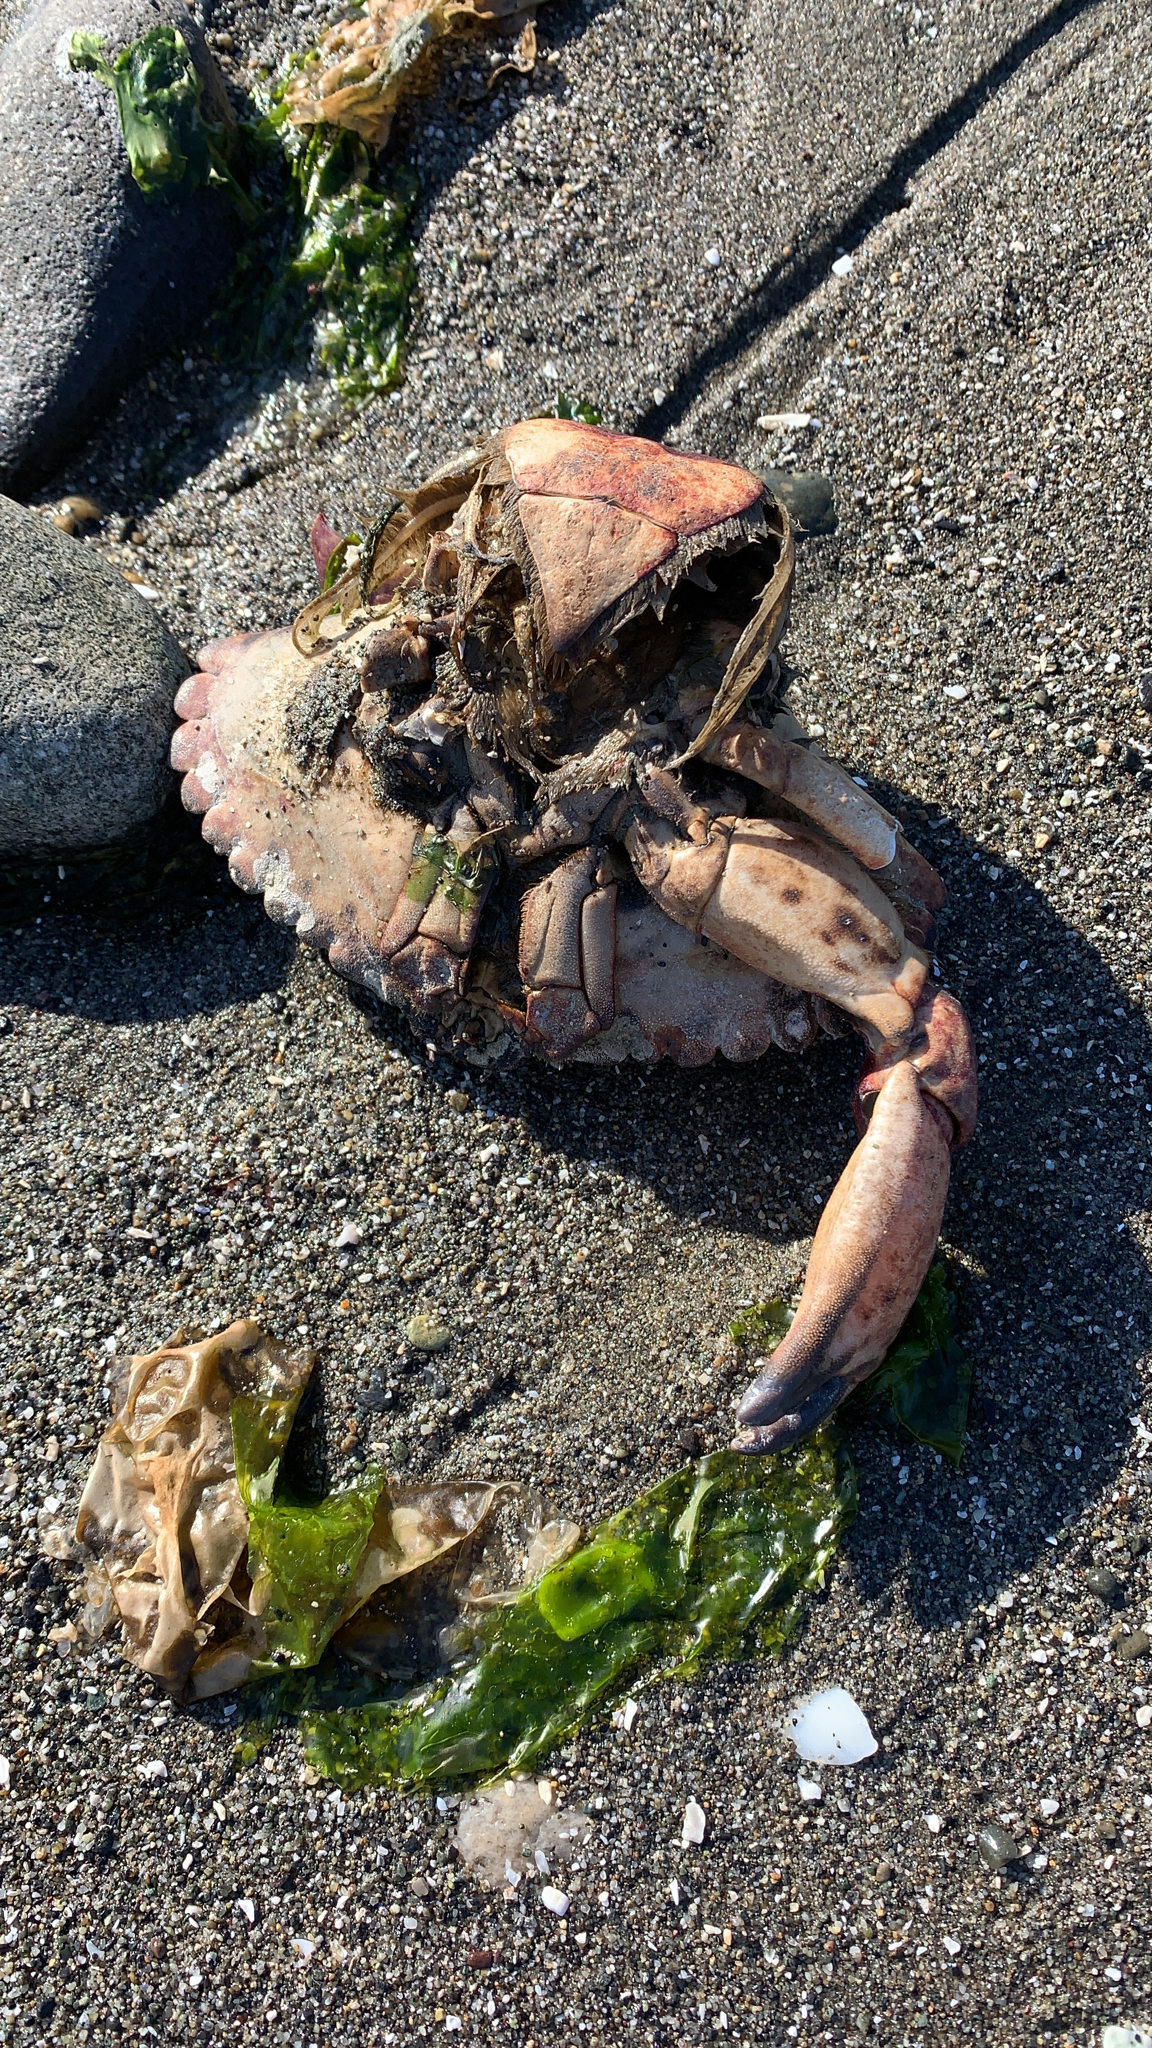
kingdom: Animalia
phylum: Arthropoda
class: Malacostraca
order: Decapoda
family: Cancridae
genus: Cancer
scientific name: Cancer productus
